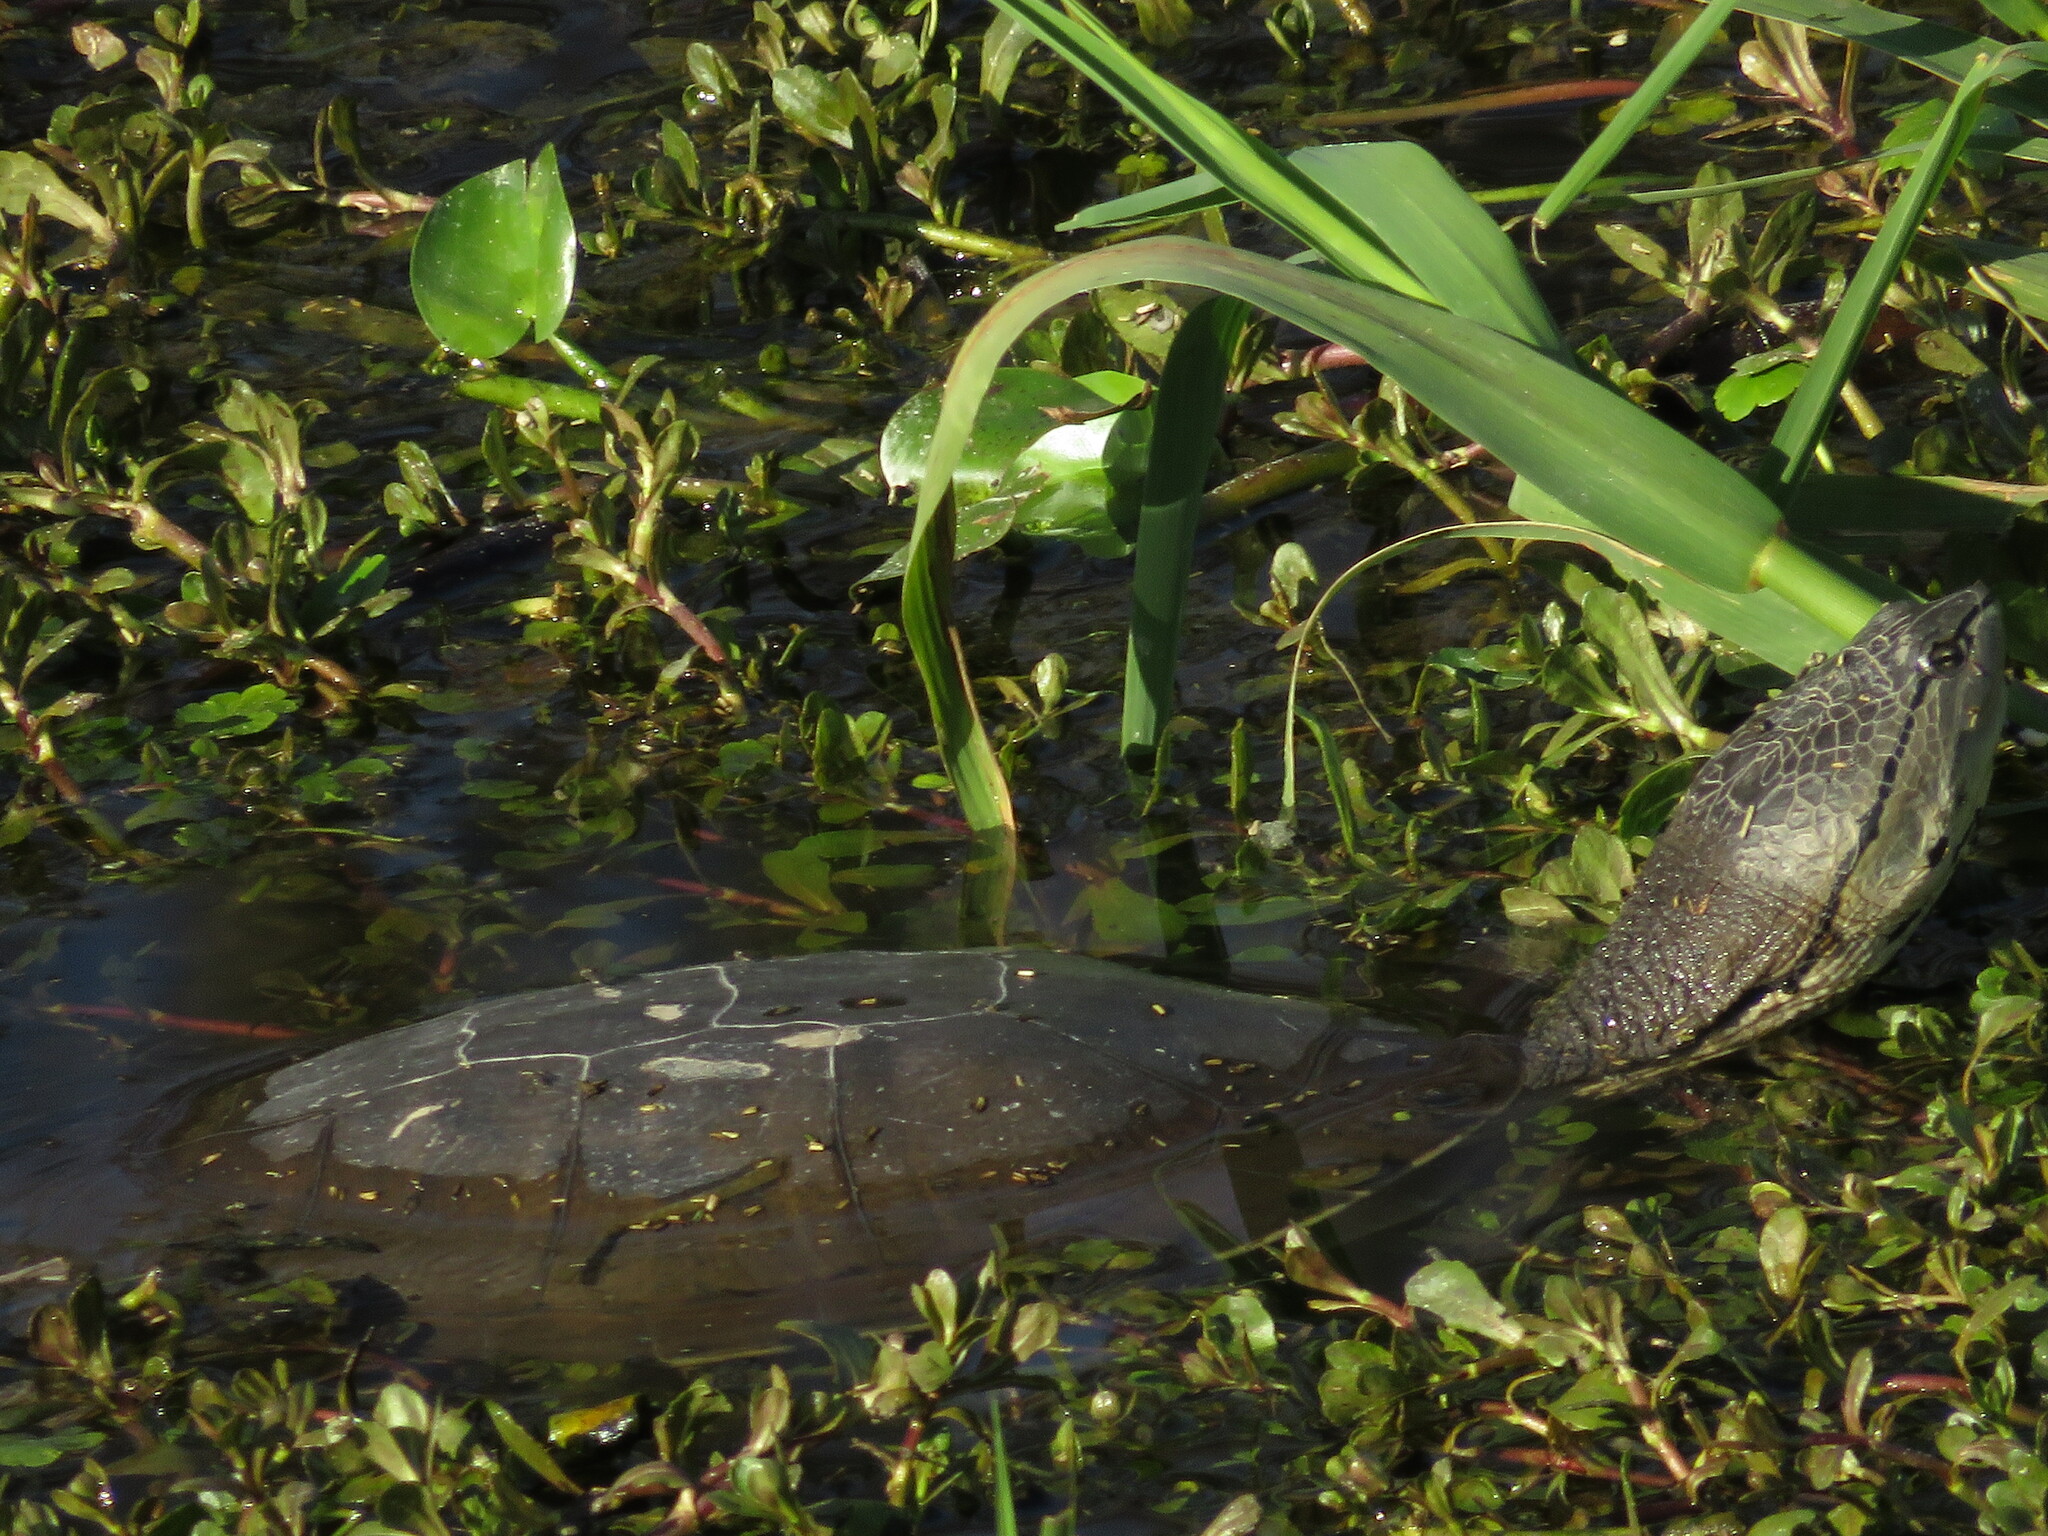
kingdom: Animalia
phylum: Chordata
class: Testudines
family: Chelidae
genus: Phrynops
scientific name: Phrynops hilarii
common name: Side-necked turtle of saint hillaire
